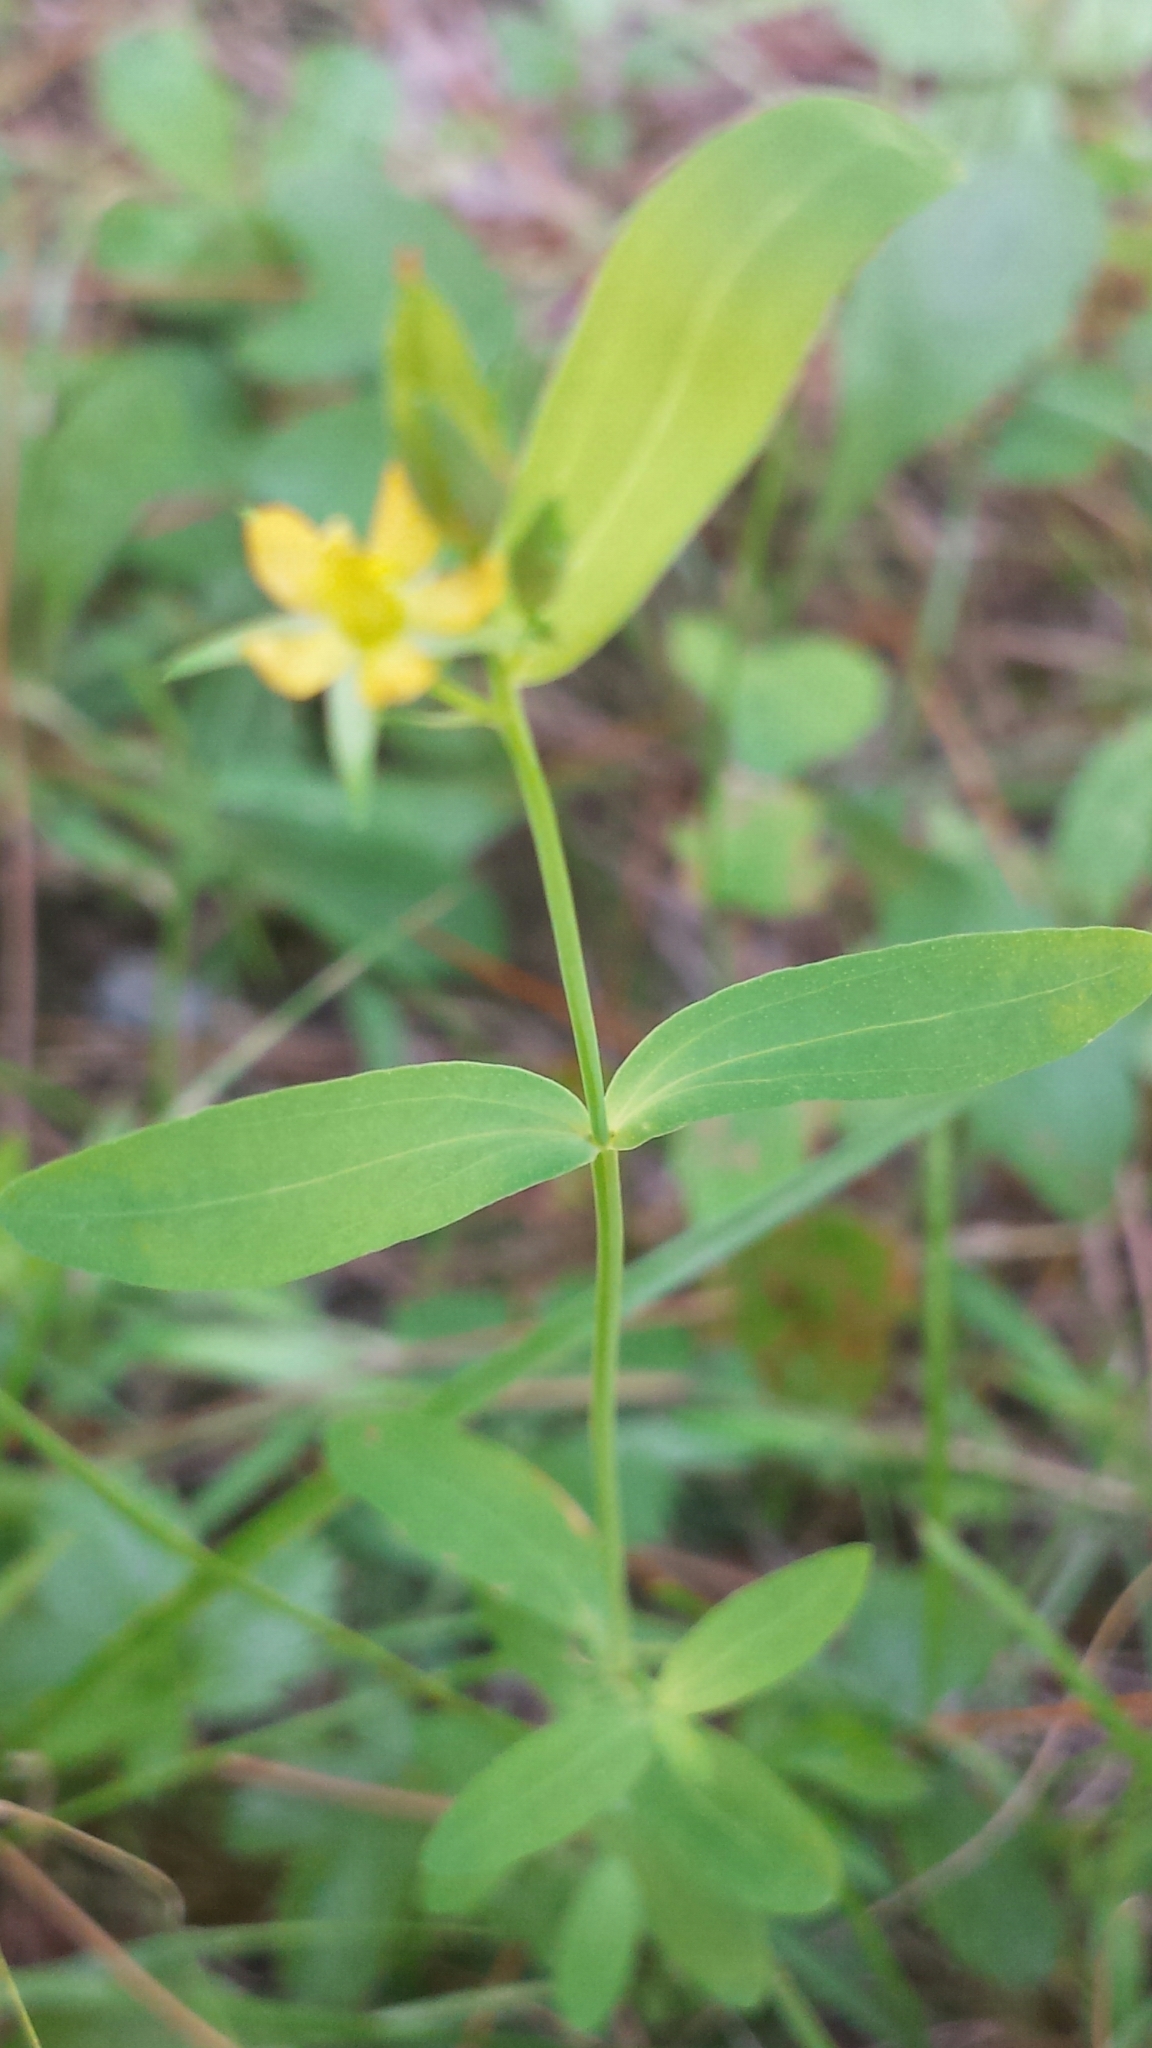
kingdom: Plantae
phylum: Tracheophyta
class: Magnoliopsida
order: Malpighiales
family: Hypericaceae
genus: Hypericum
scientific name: Hypericum mutilum
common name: Dwarf st. john's-wort
